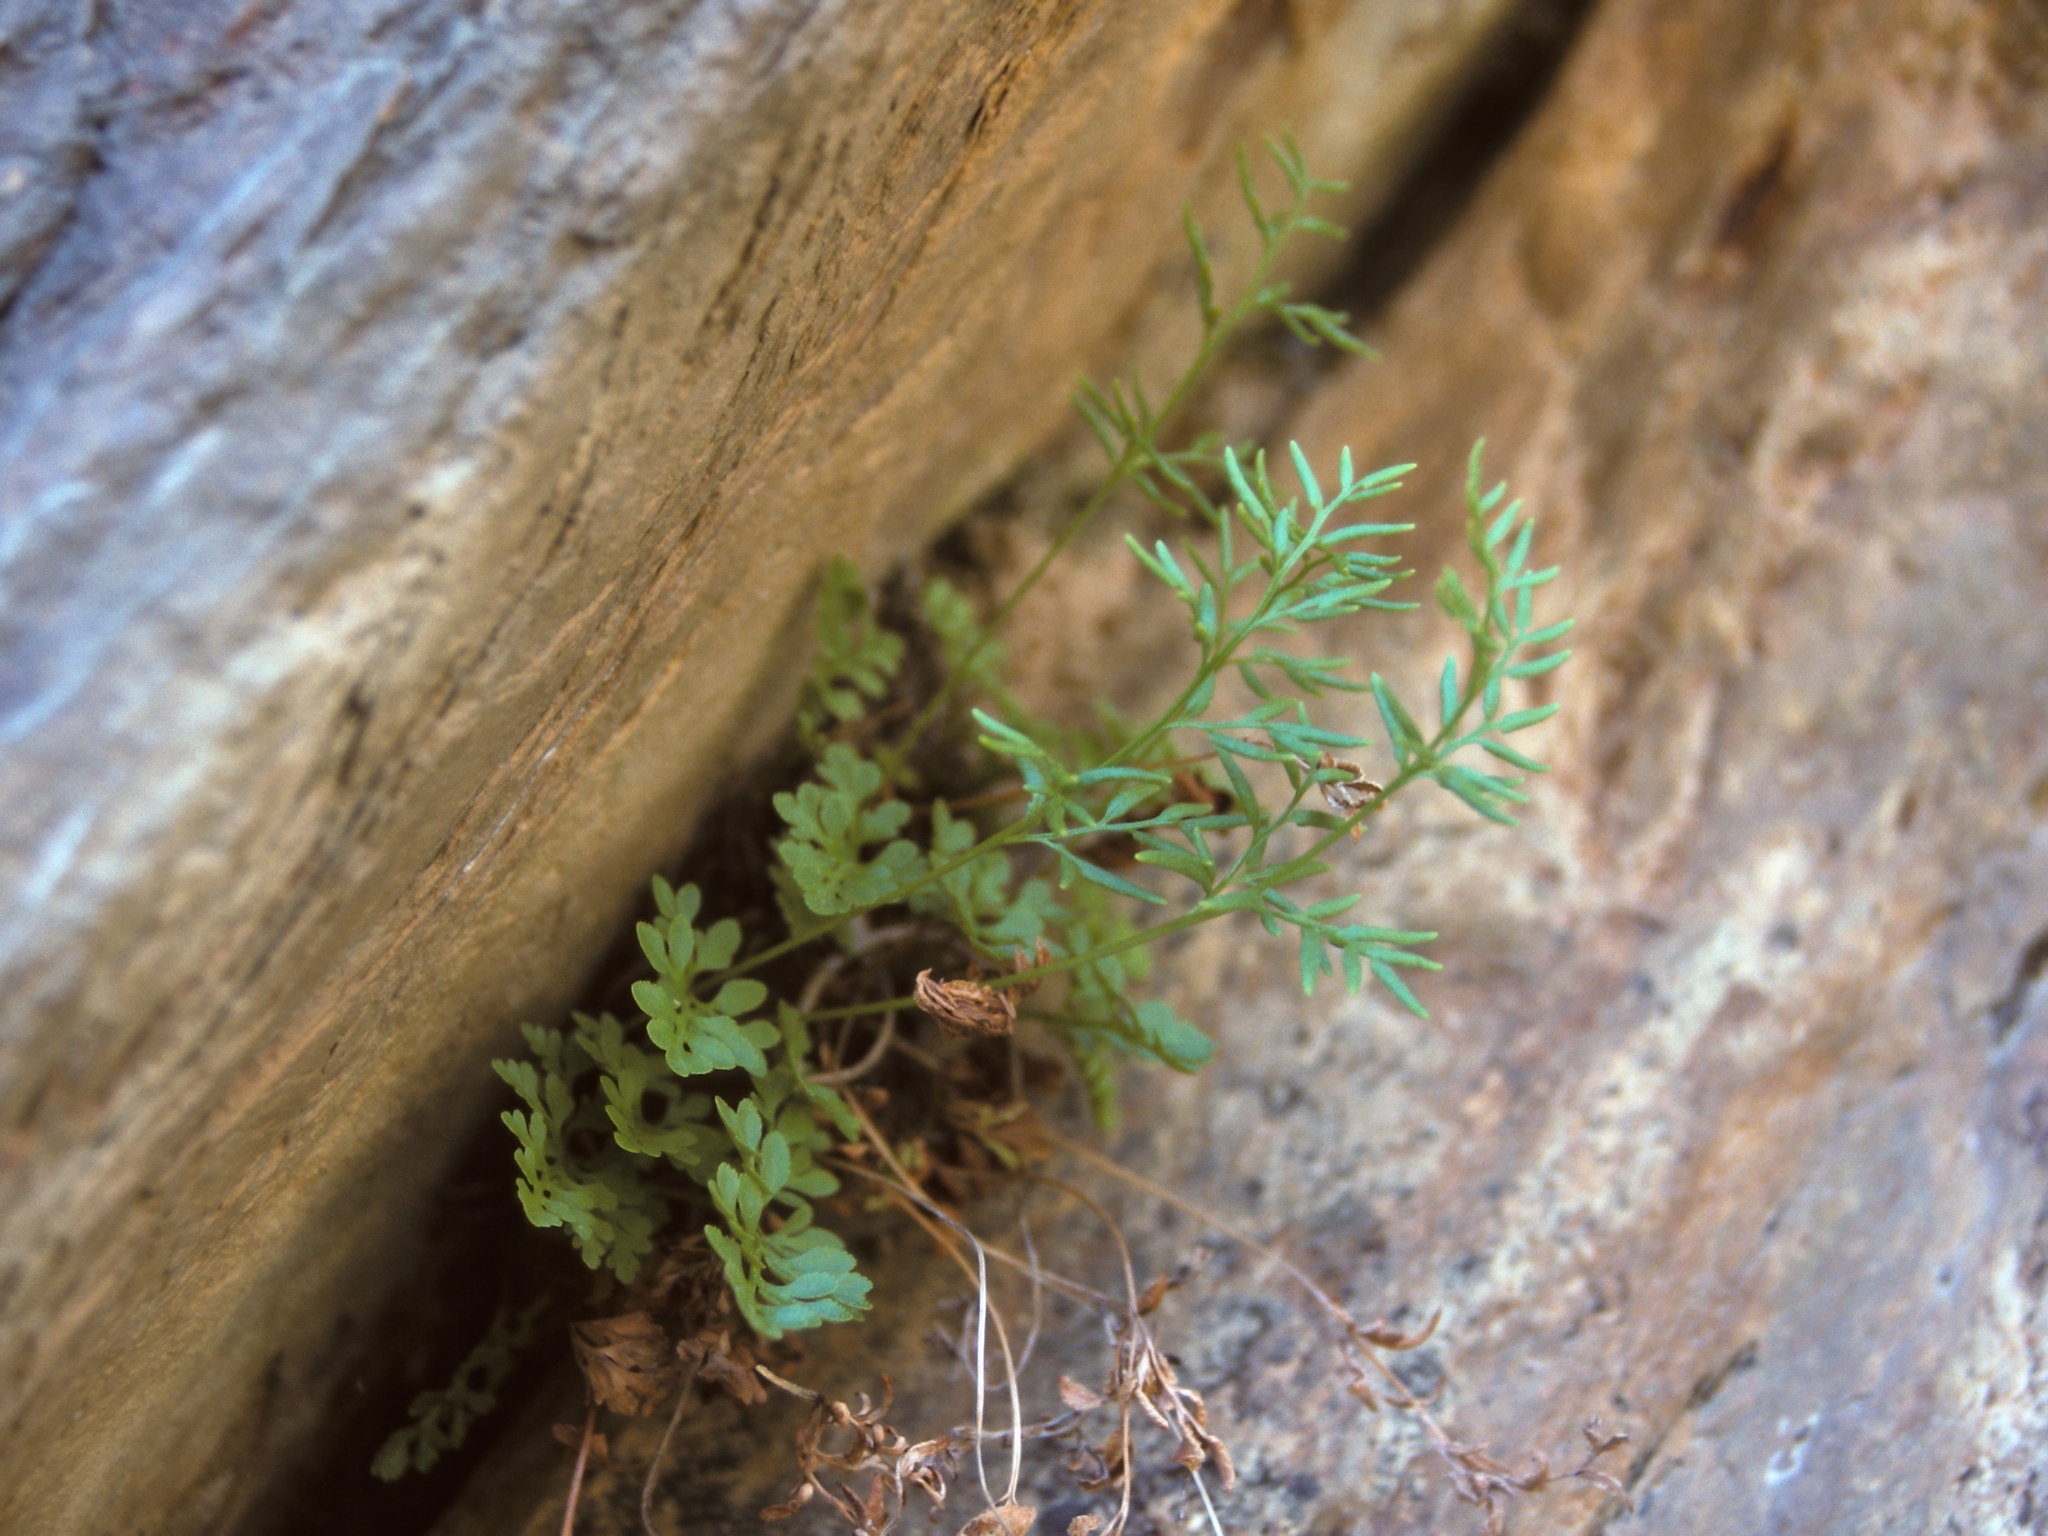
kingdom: Plantae
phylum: Tracheophyta
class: Polypodiopsida
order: Polypodiales
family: Pteridaceae
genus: Cryptogramma
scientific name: Cryptogramma acrostichoides
